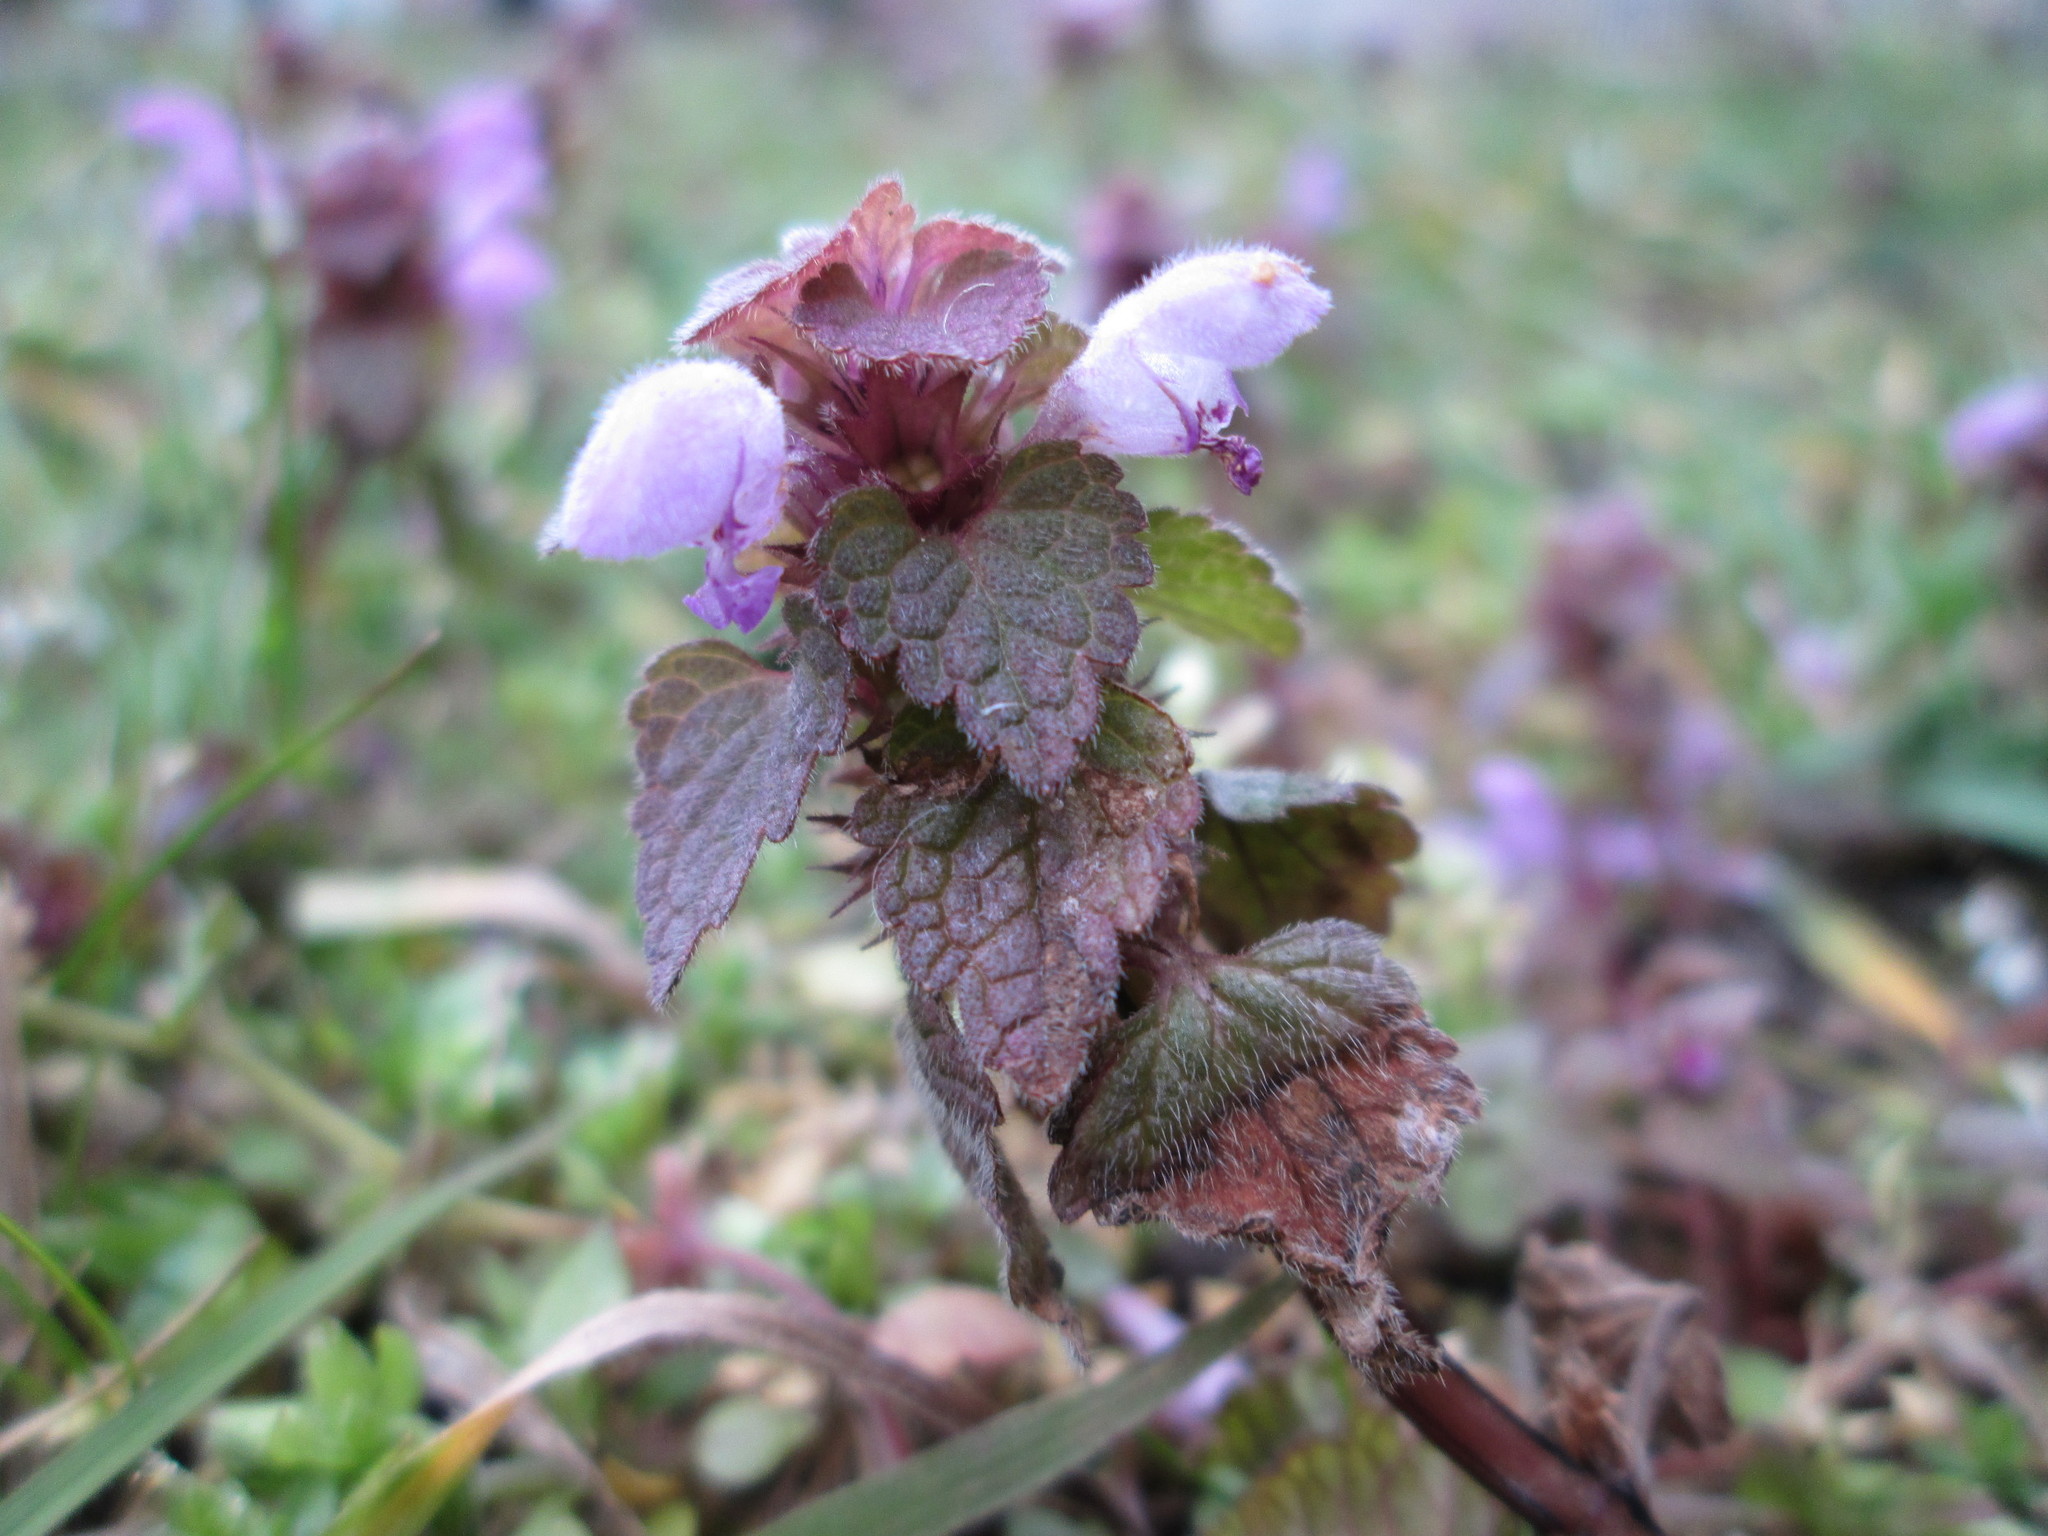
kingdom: Plantae
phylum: Tracheophyta
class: Magnoliopsida
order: Lamiales
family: Lamiaceae
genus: Lamium
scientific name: Lamium purpureum
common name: Red dead-nettle
